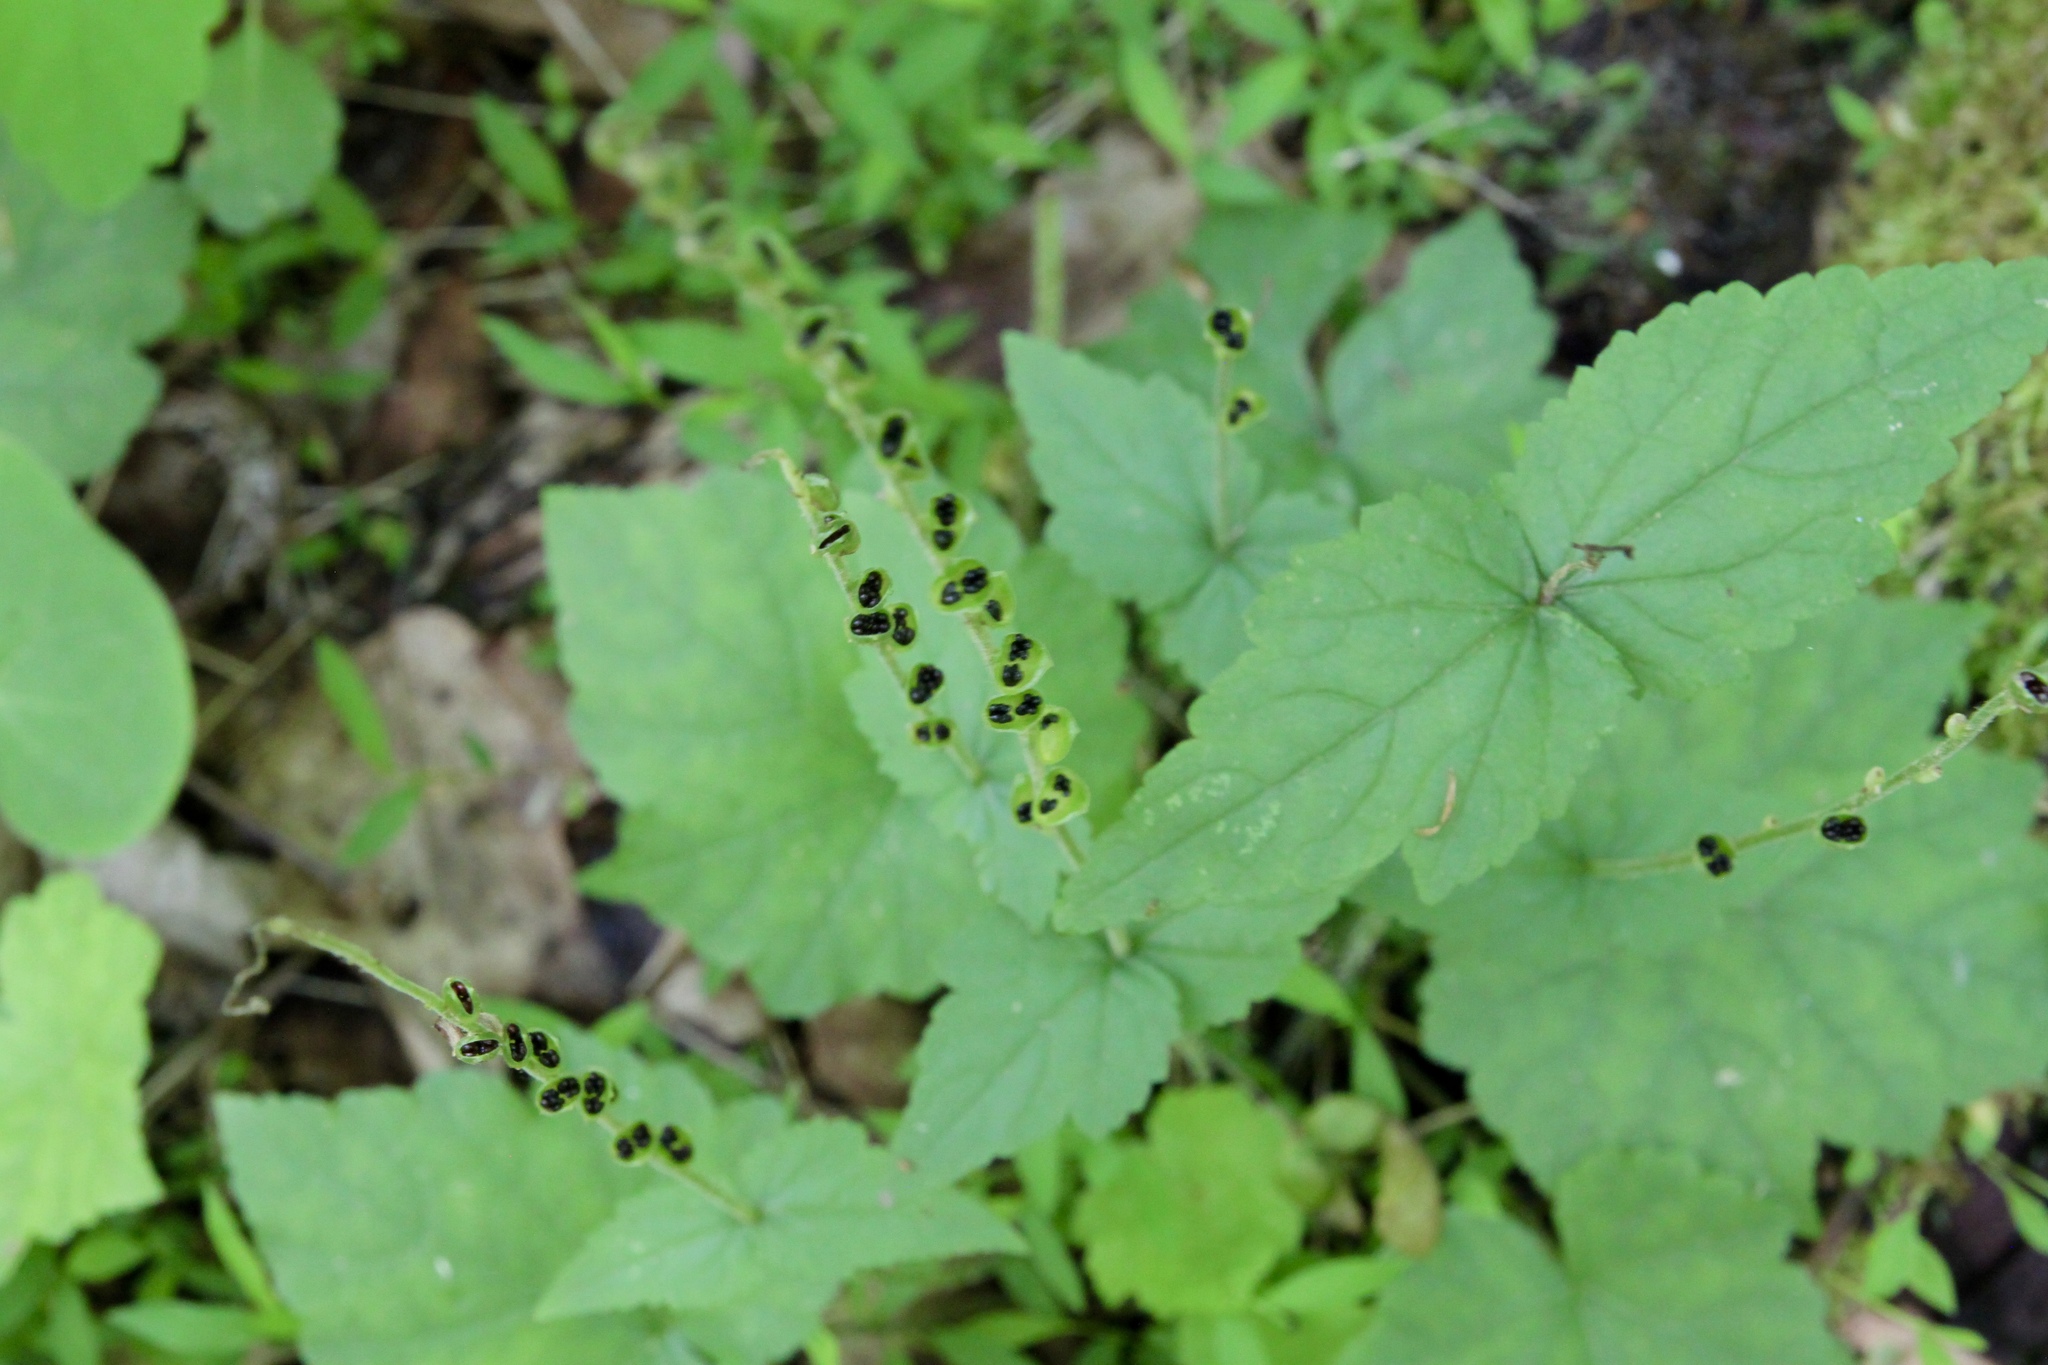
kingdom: Plantae
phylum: Tracheophyta
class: Magnoliopsida
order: Saxifragales
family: Saxifragaceae
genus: Mitella
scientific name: Mitella diphylla
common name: Coolwort
